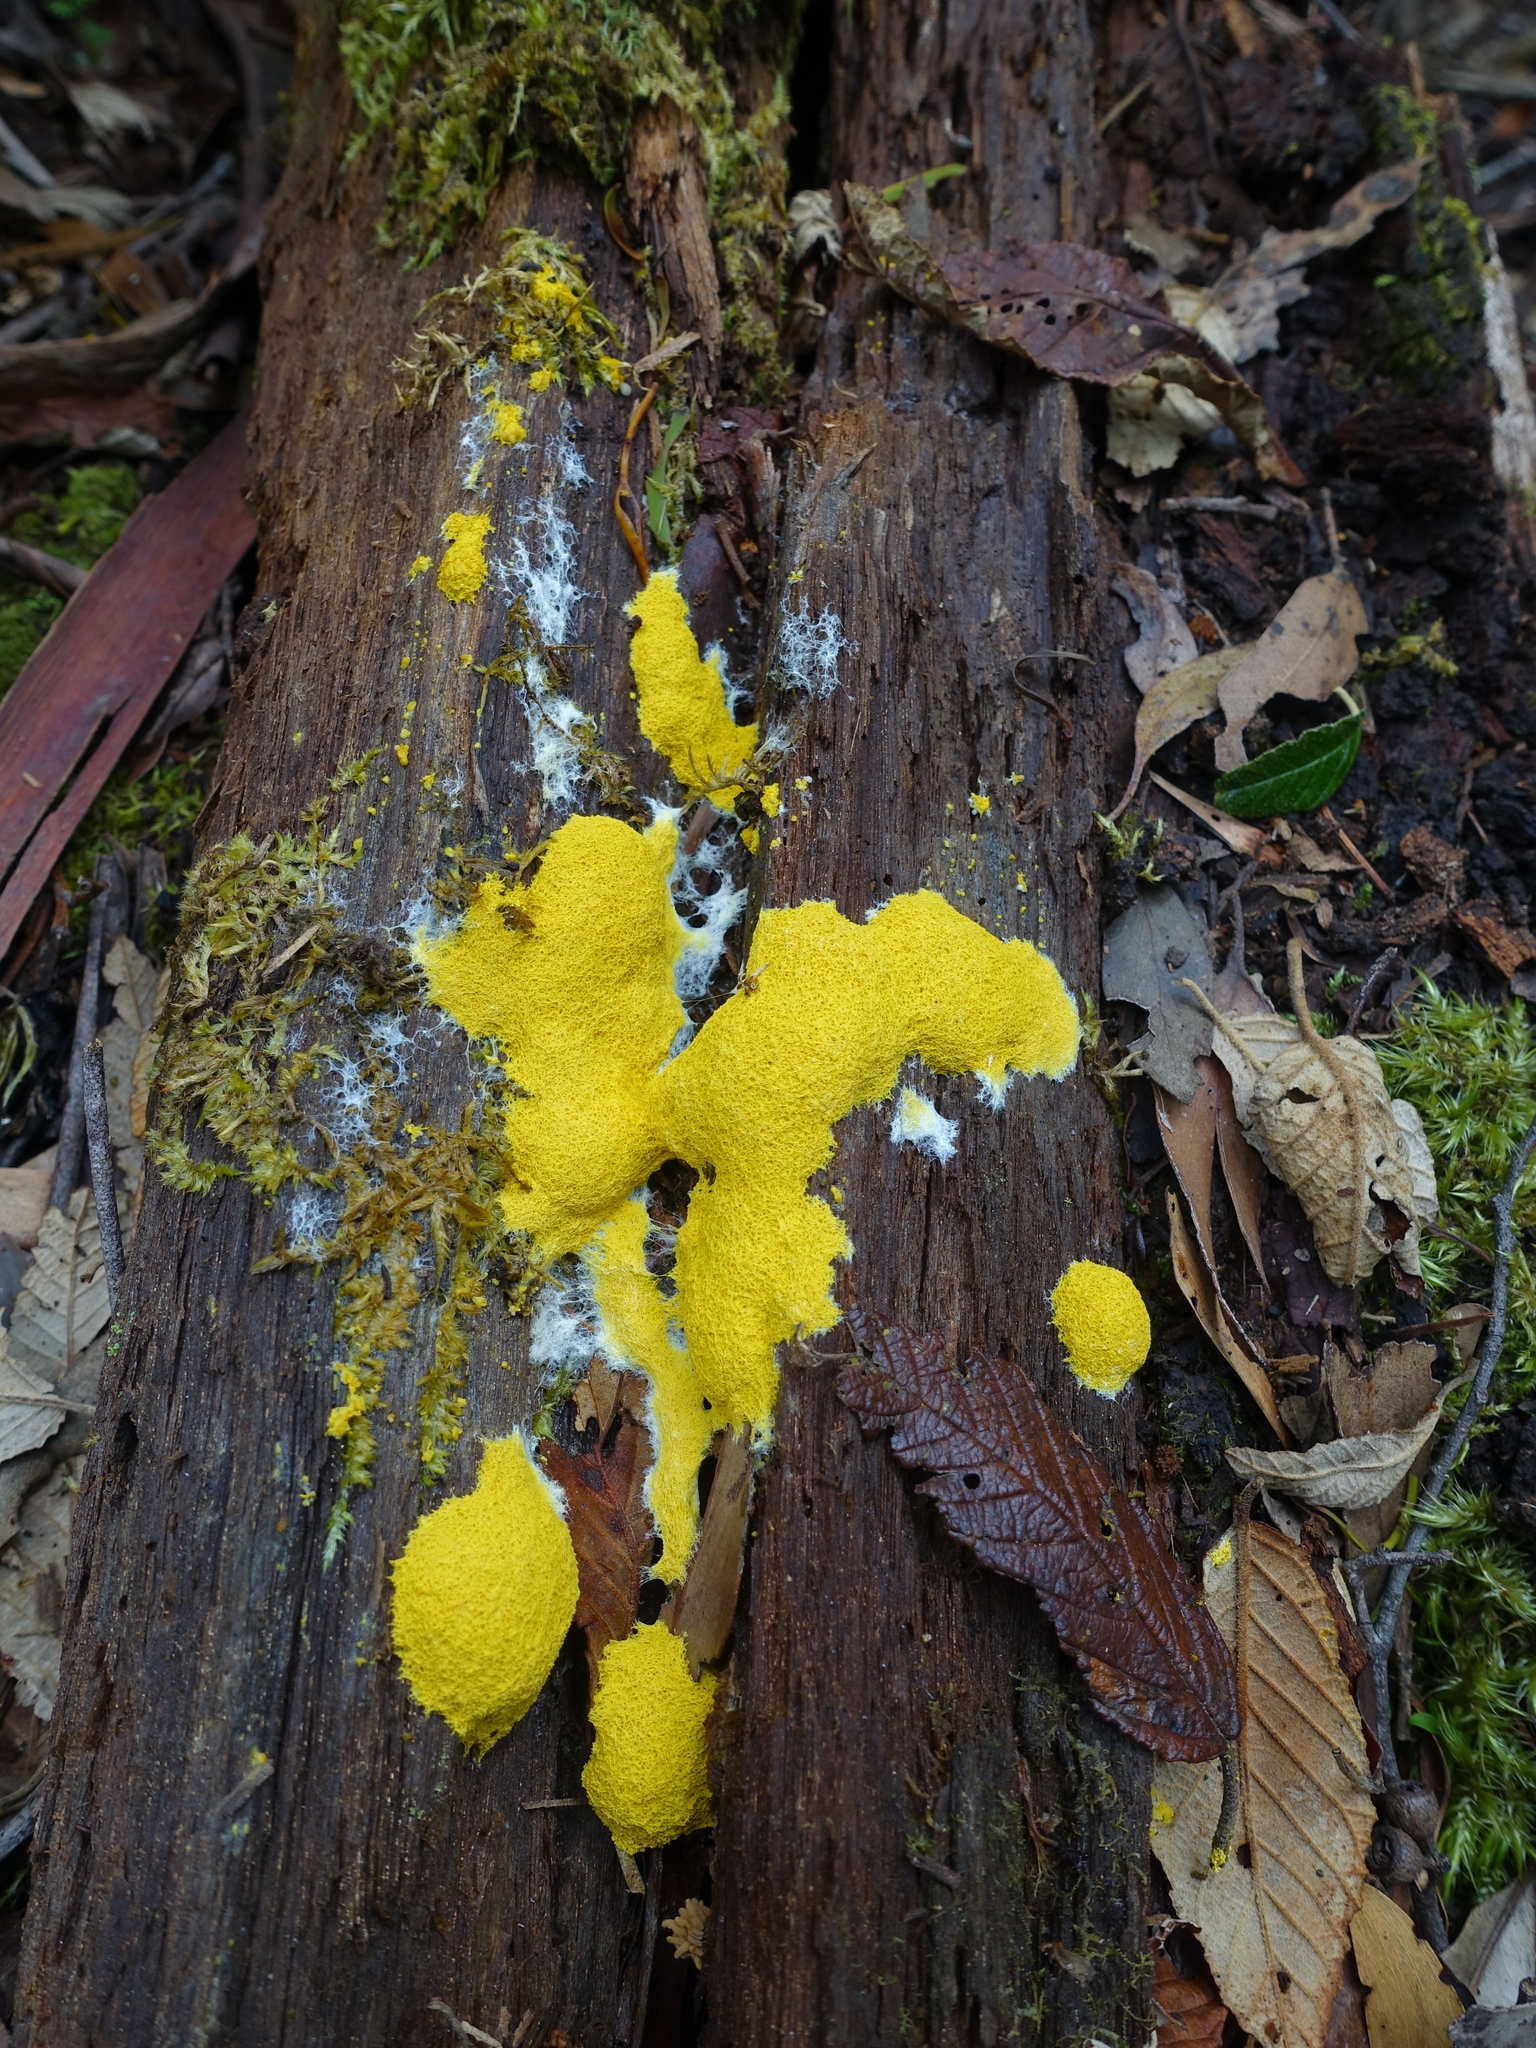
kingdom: Protozoa
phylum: Mycetozoa
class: Myxomycetes
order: Physarales
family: Physaraceae
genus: Fuligo
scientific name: Fuligo septica
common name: Dog vomit slime mold
